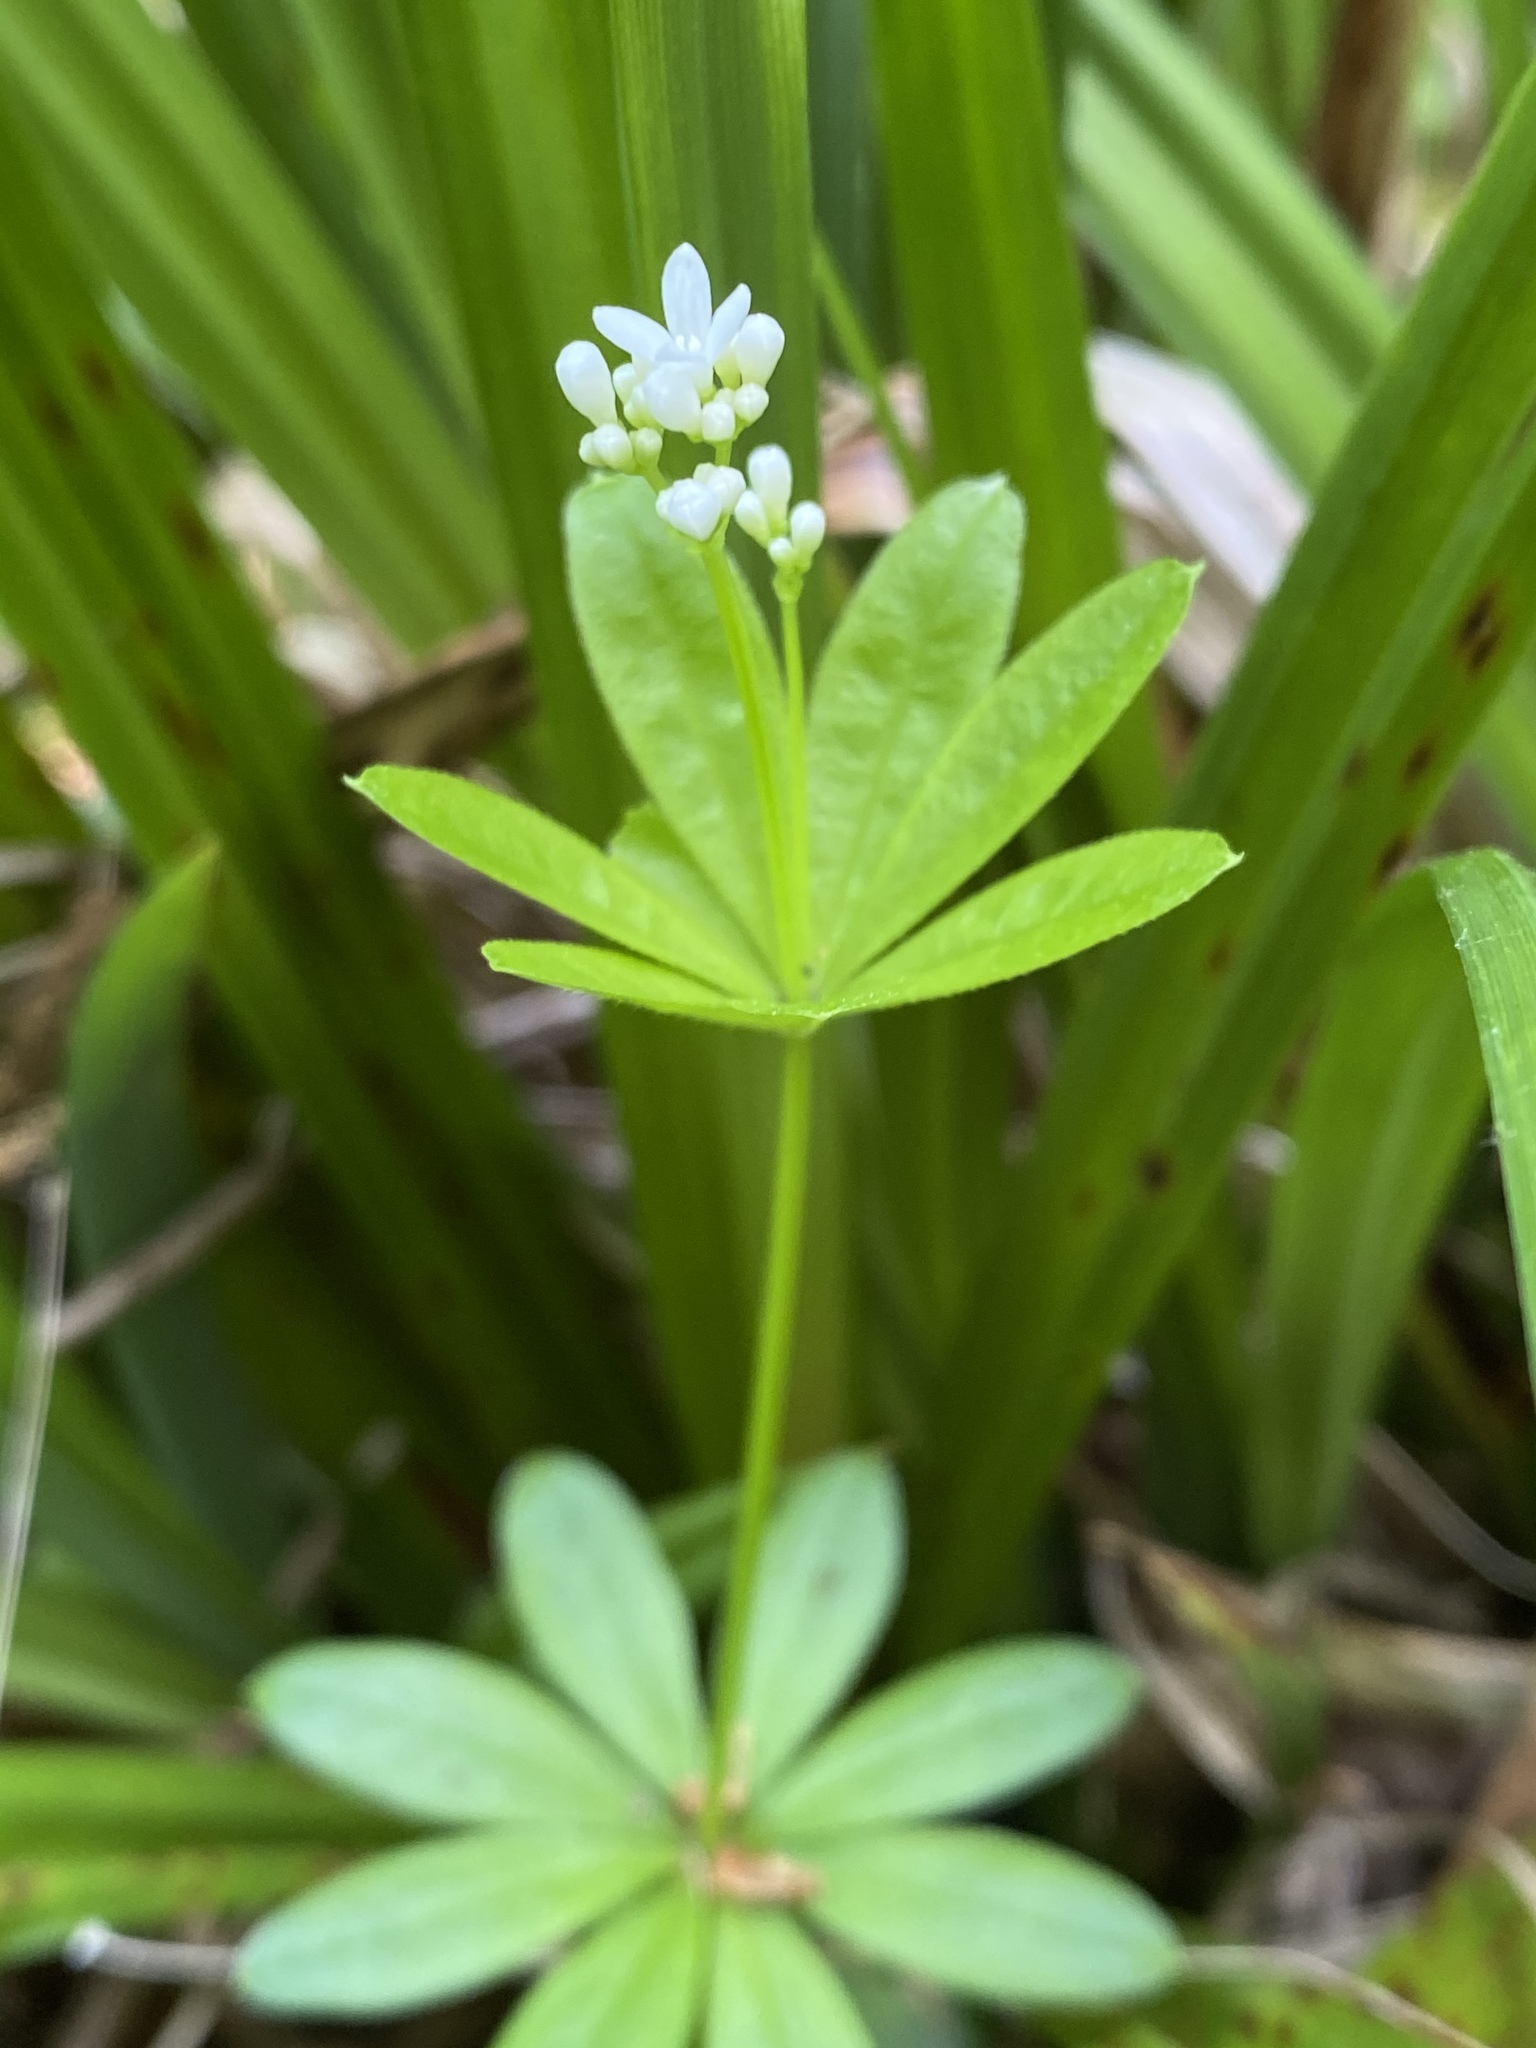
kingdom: Plantae
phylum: Tracheophyta
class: Magnoliopsida
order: Gentianales
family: Rubiaceae
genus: Galium
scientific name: Galium odoratum
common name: Sweet woodruff
